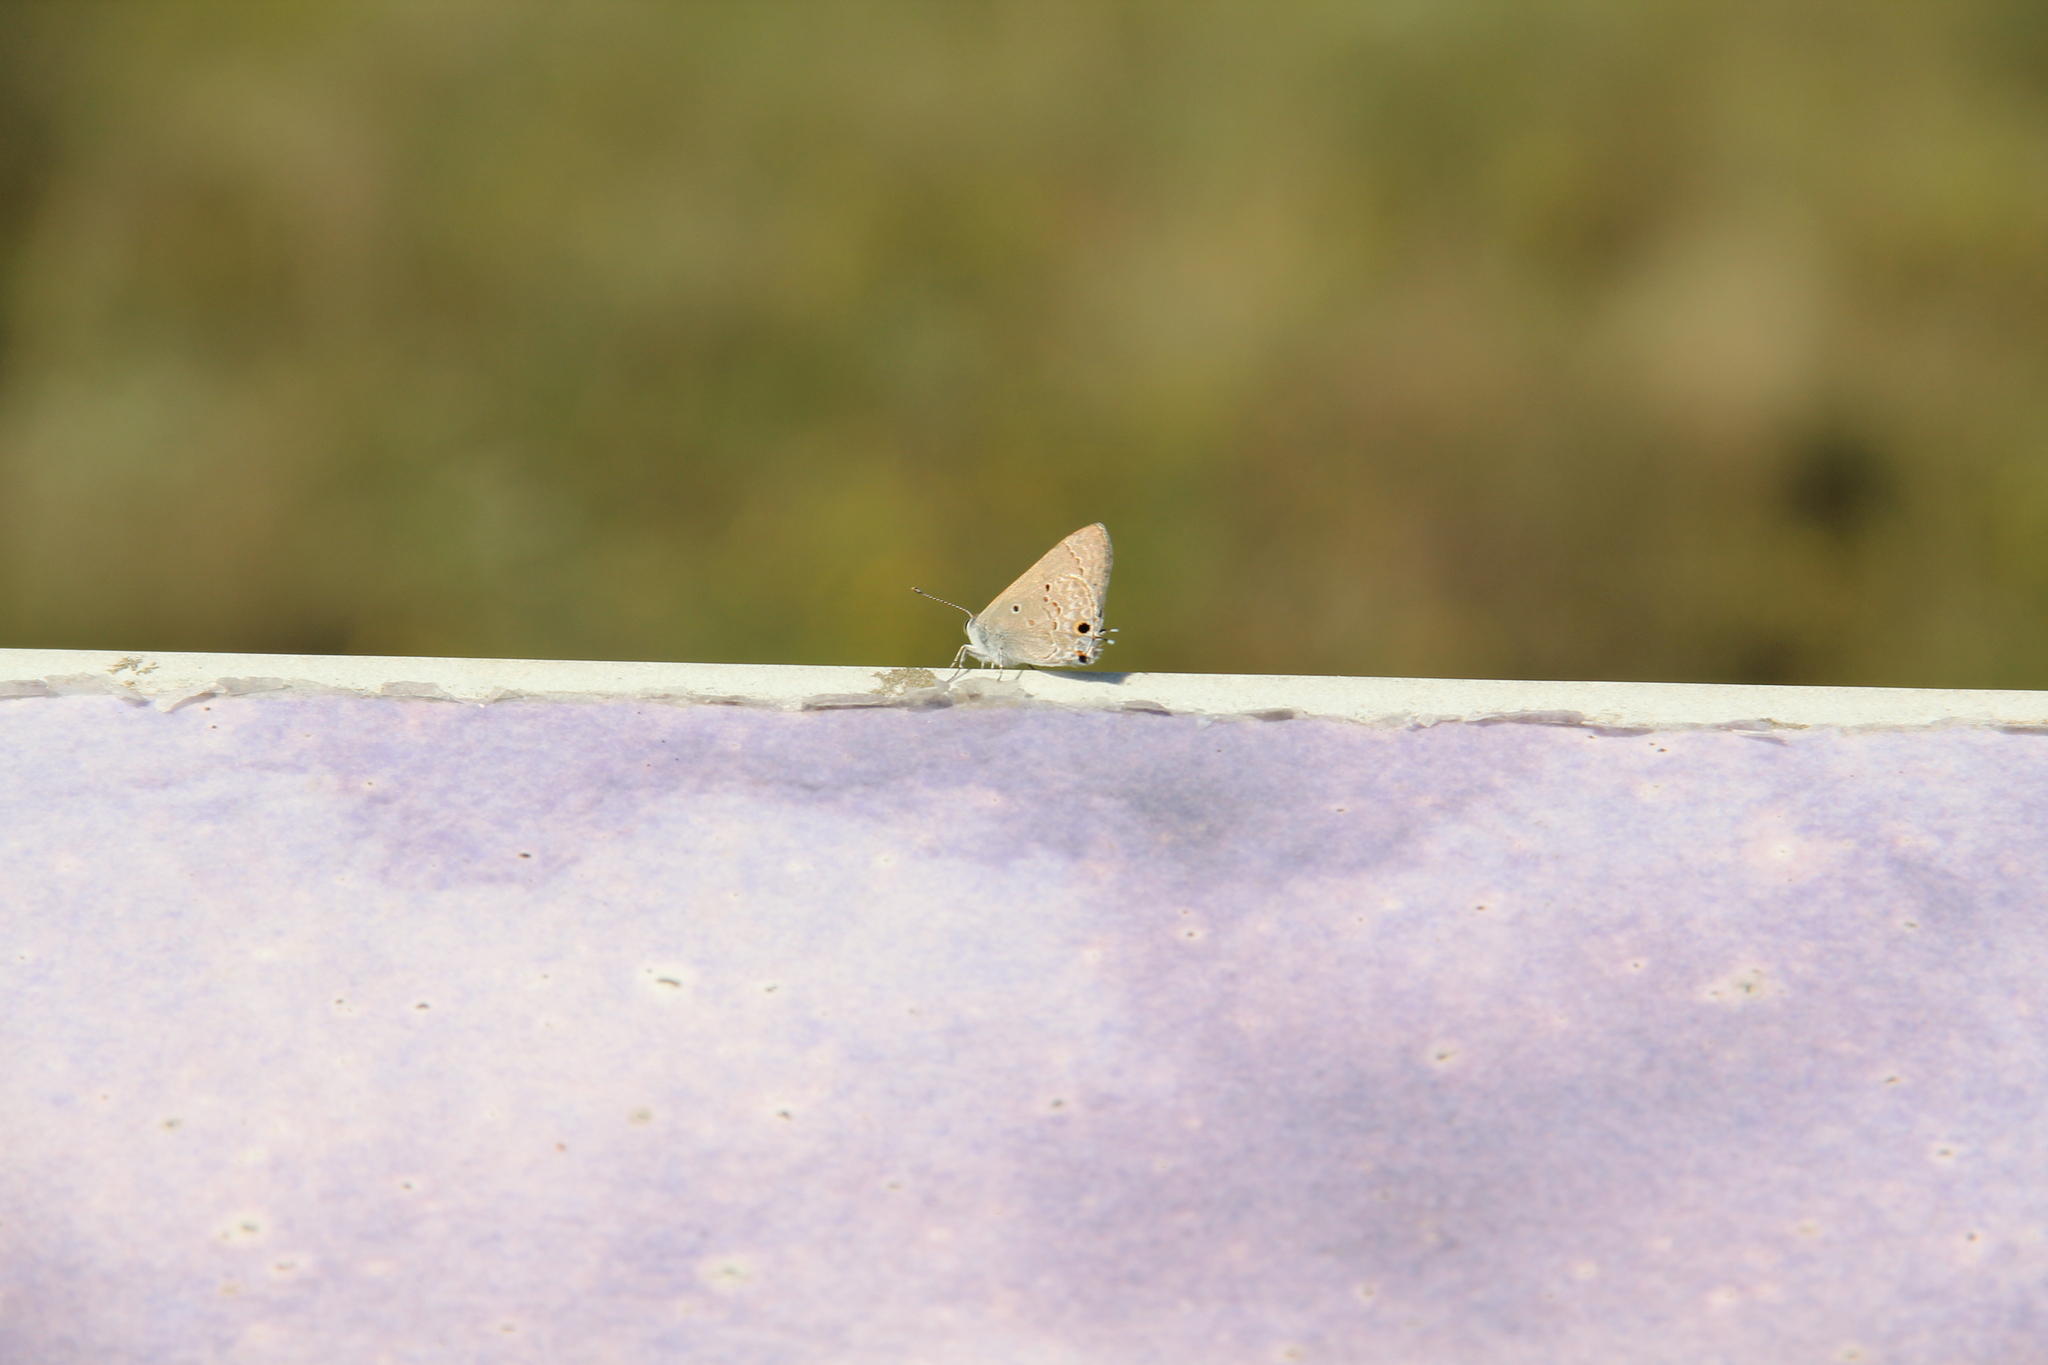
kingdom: Animalia
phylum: Arthropoda
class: Insecta
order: Lepidoptera
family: Lycaenidae
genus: Callicista
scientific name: Callicista columella
